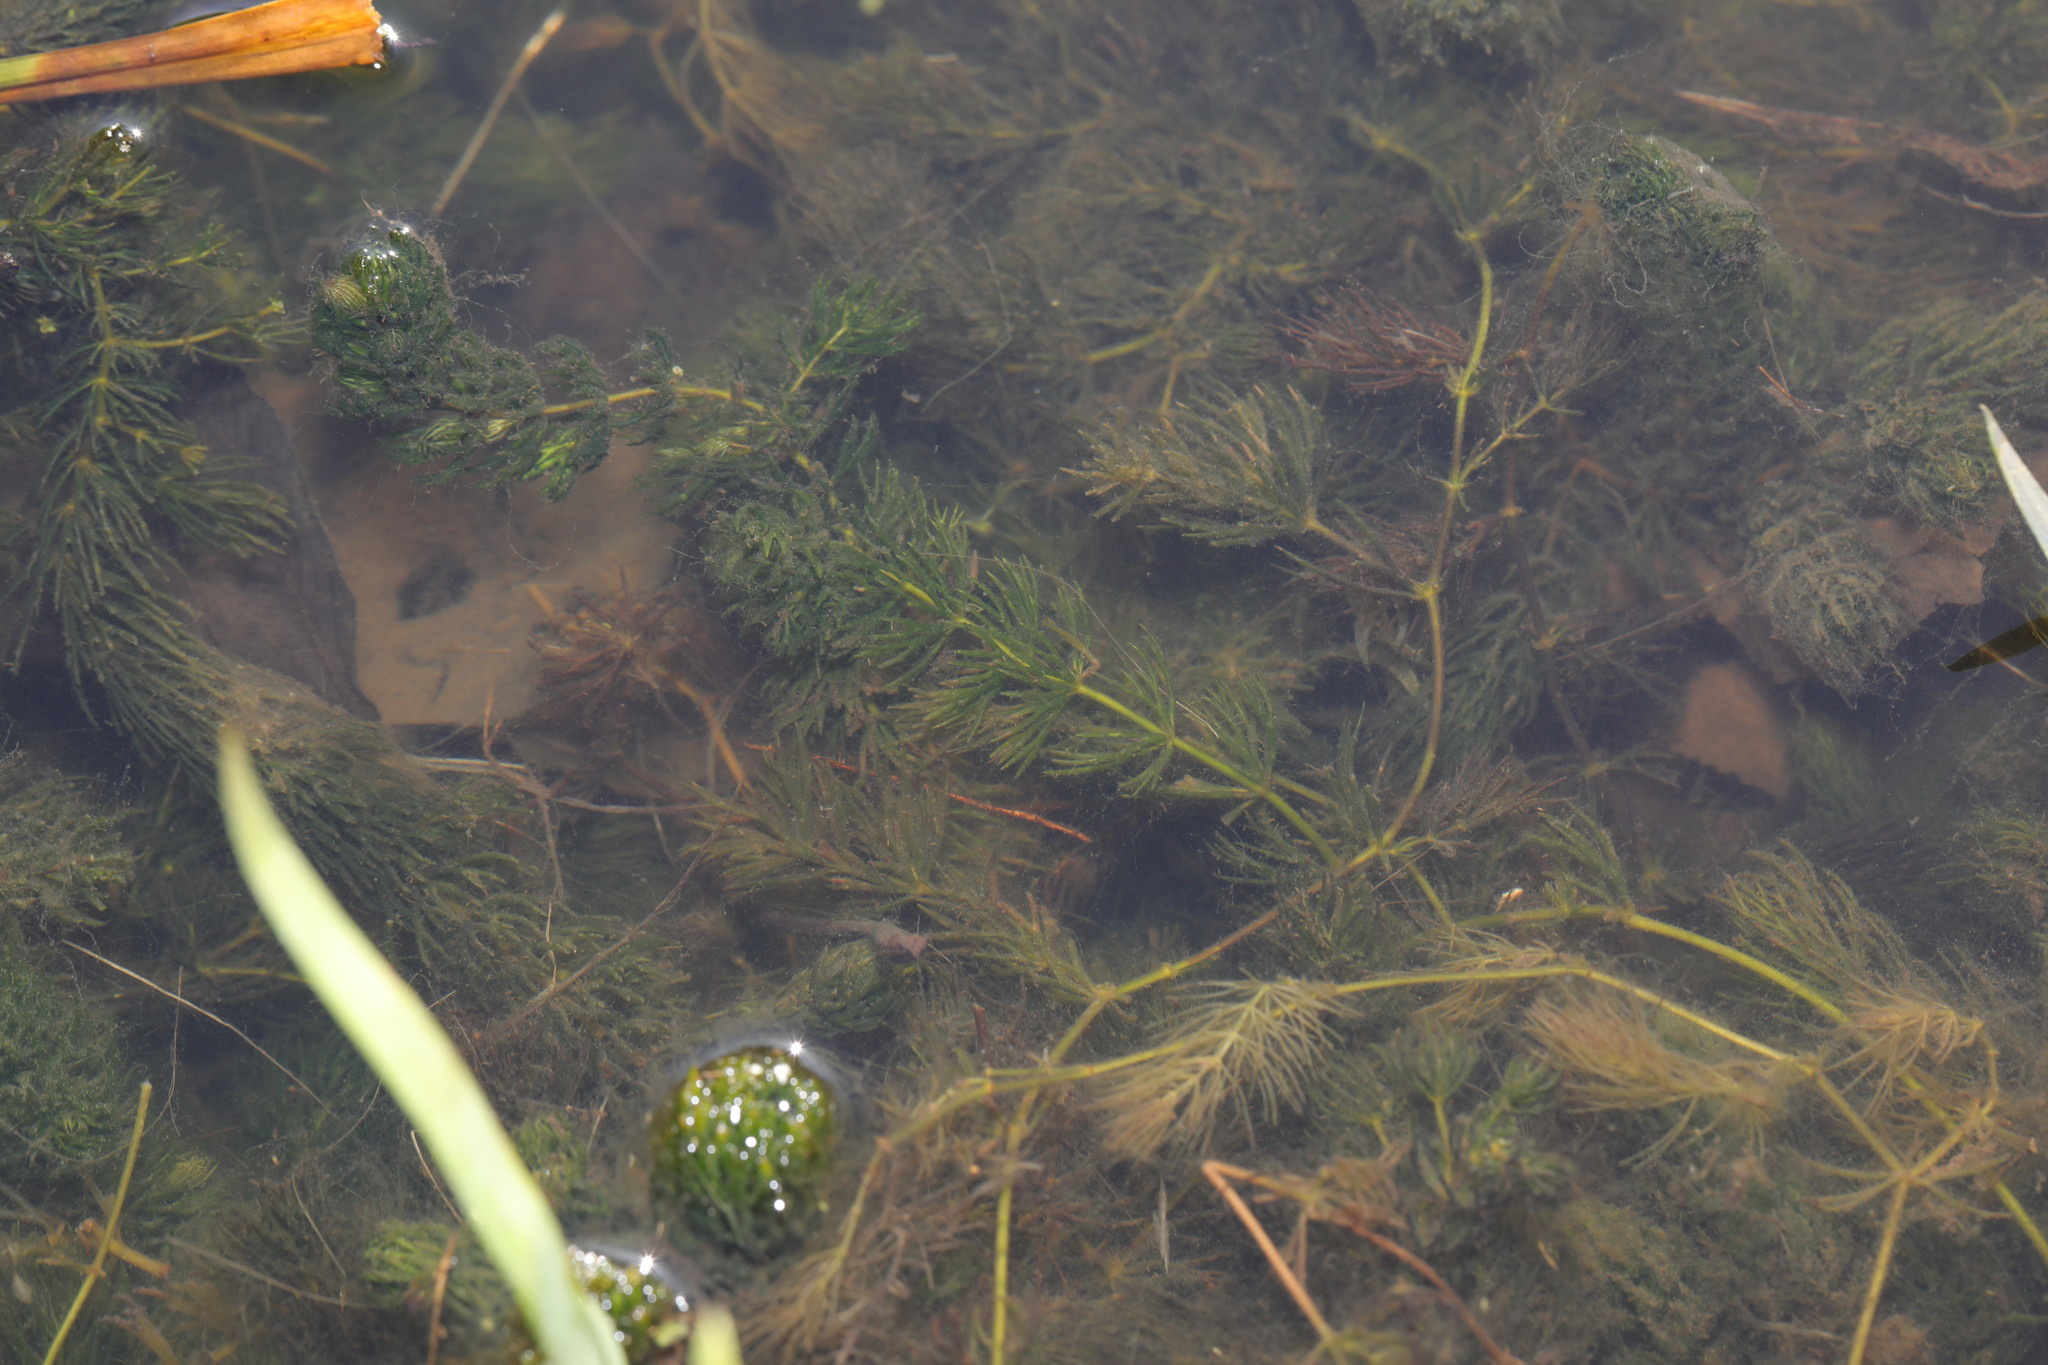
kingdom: Plantae
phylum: Tracheophyta
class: Magnoliopsida
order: Ceratophyllales
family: Ceratophyllaceae
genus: Ceratophyllum
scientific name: Ceratophyllum demersum
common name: Rigid hornwort
